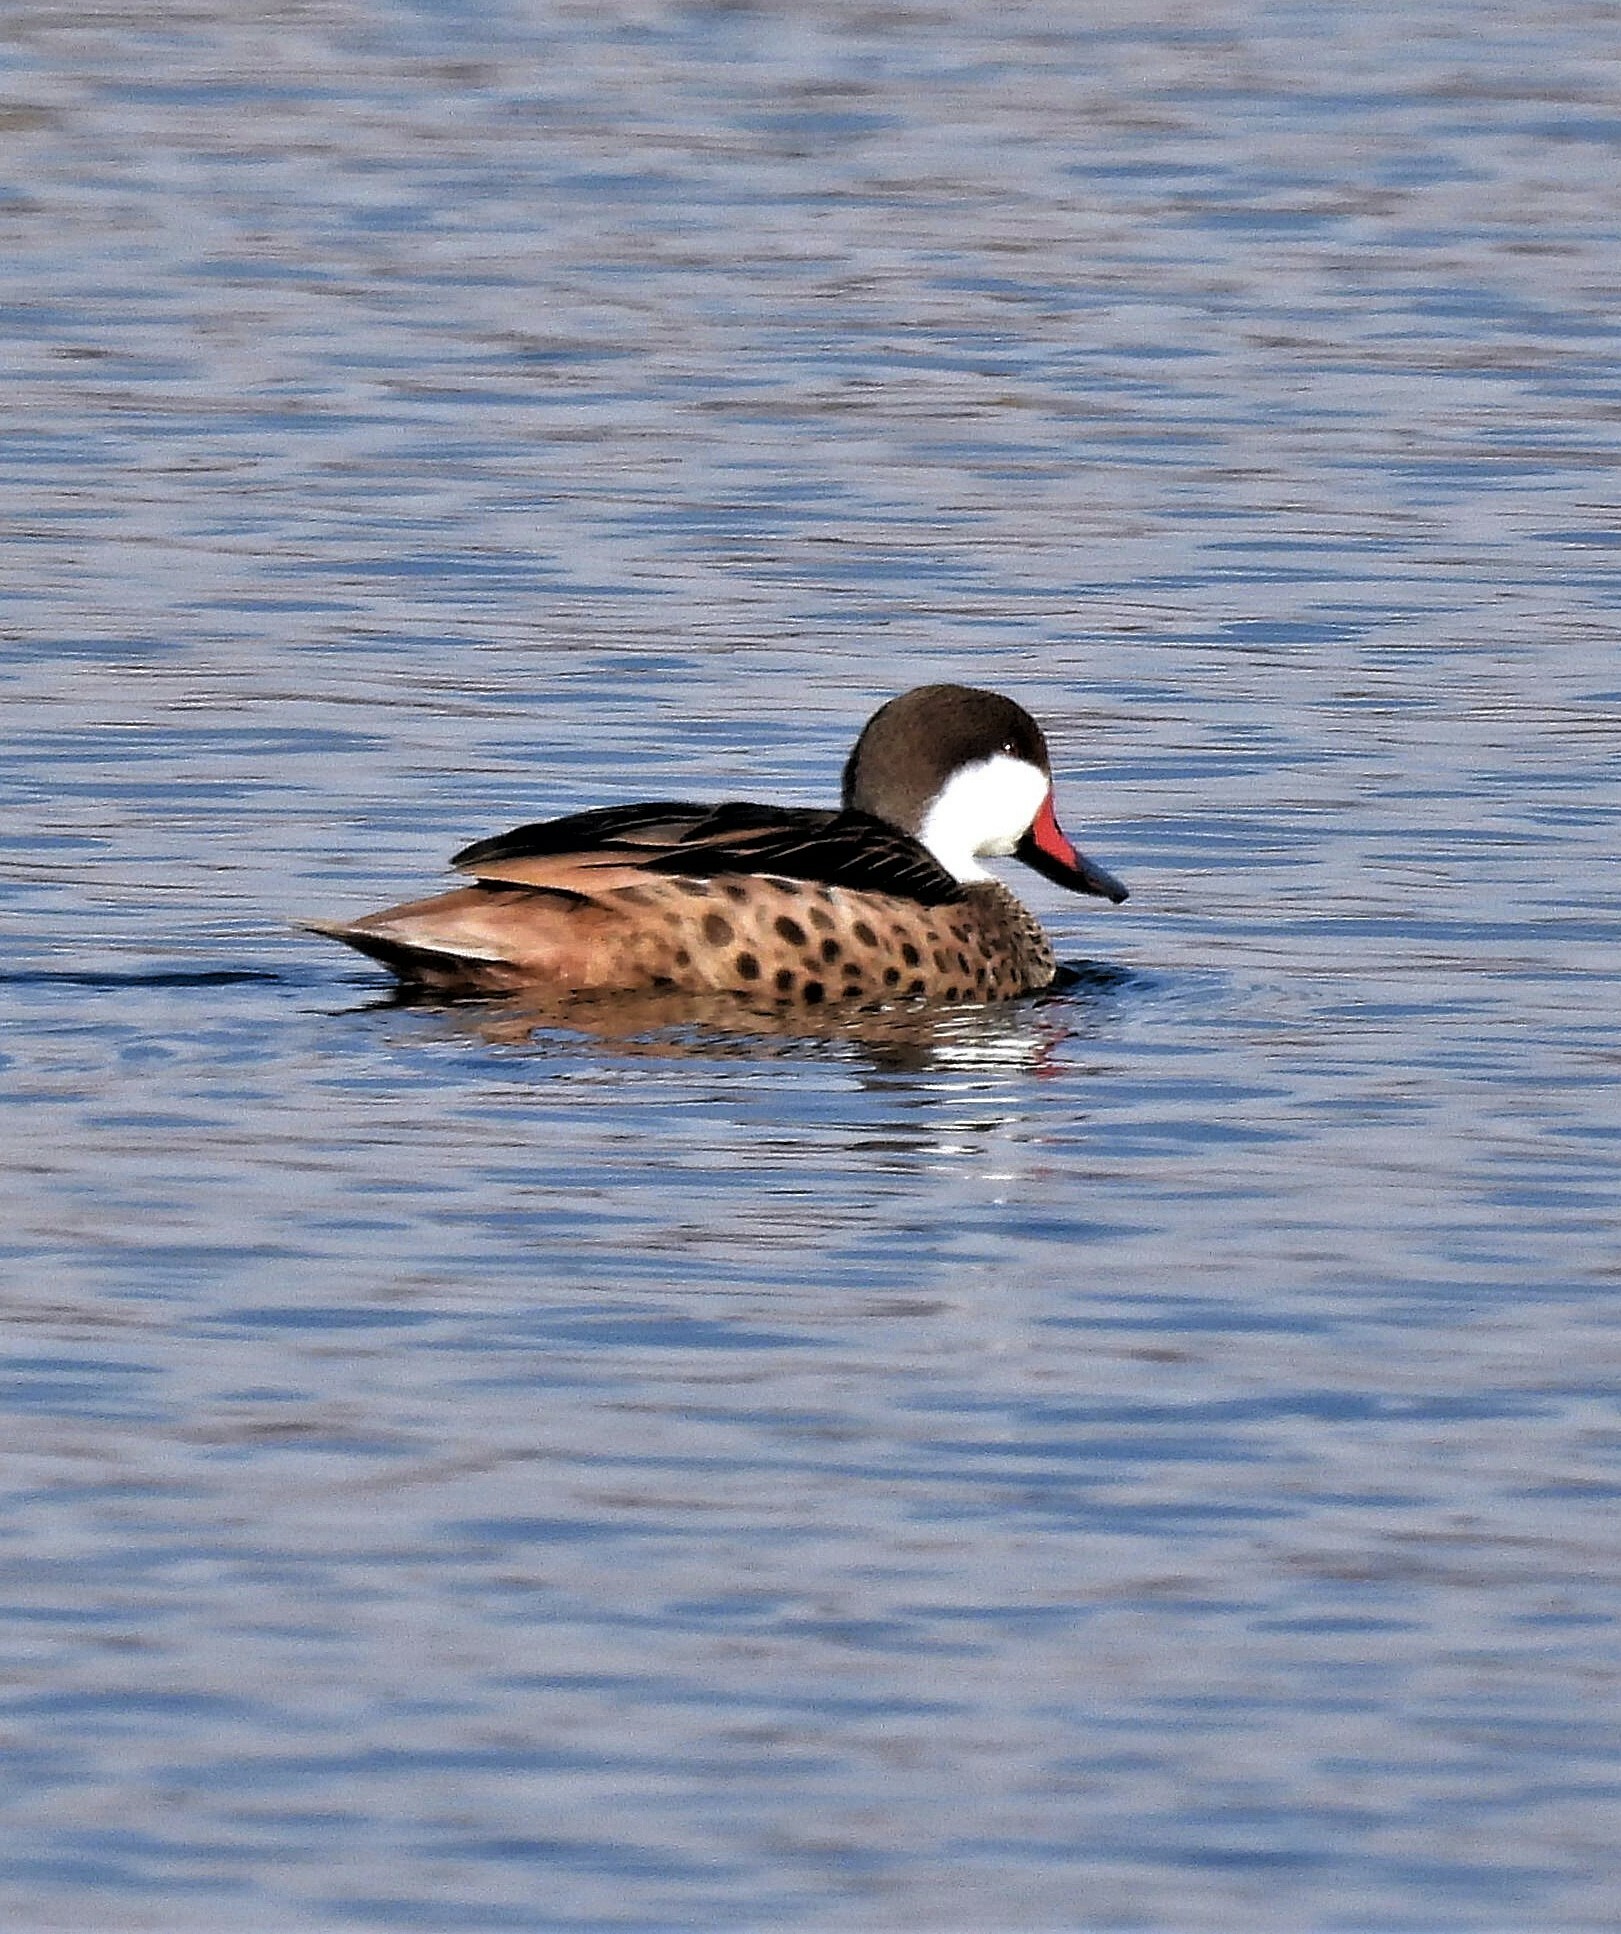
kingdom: Animalia
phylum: Chordata
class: Aves
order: Anseriformes
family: Anatidae
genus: Anas
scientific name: Anas bahamensis
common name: White-cheeked pintail
